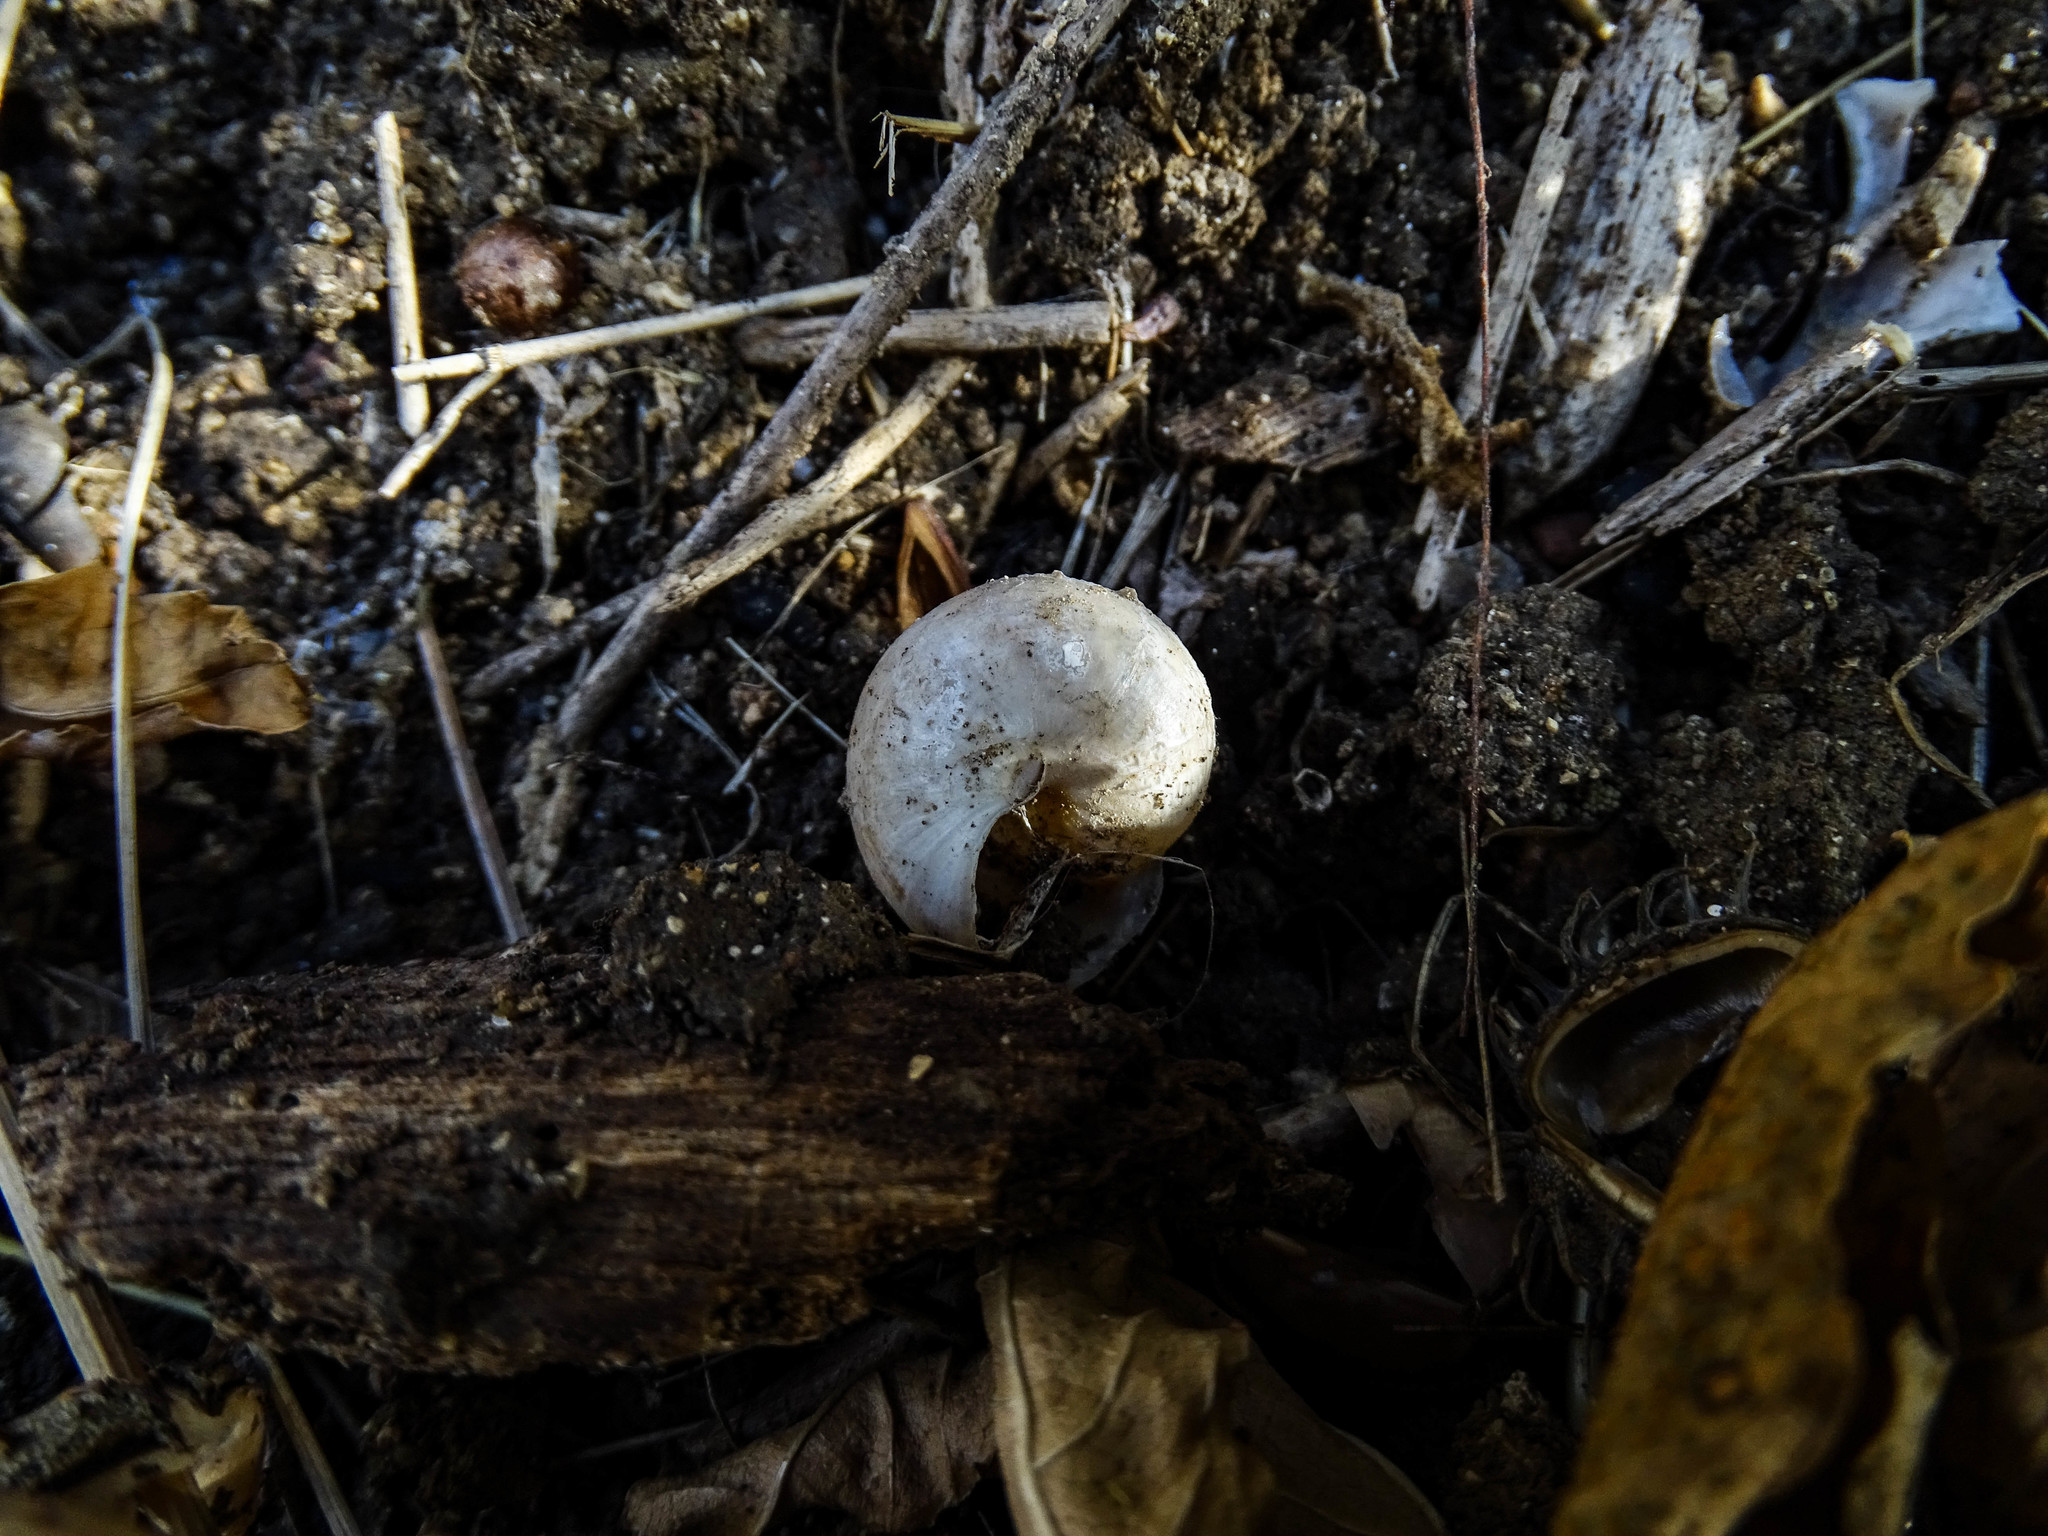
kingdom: Animalia
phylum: Mollusca
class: Gastropoda
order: Stylommatophora
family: Helicidae
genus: Eobania
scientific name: Eobania vermiculata
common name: Chocolateband snail
